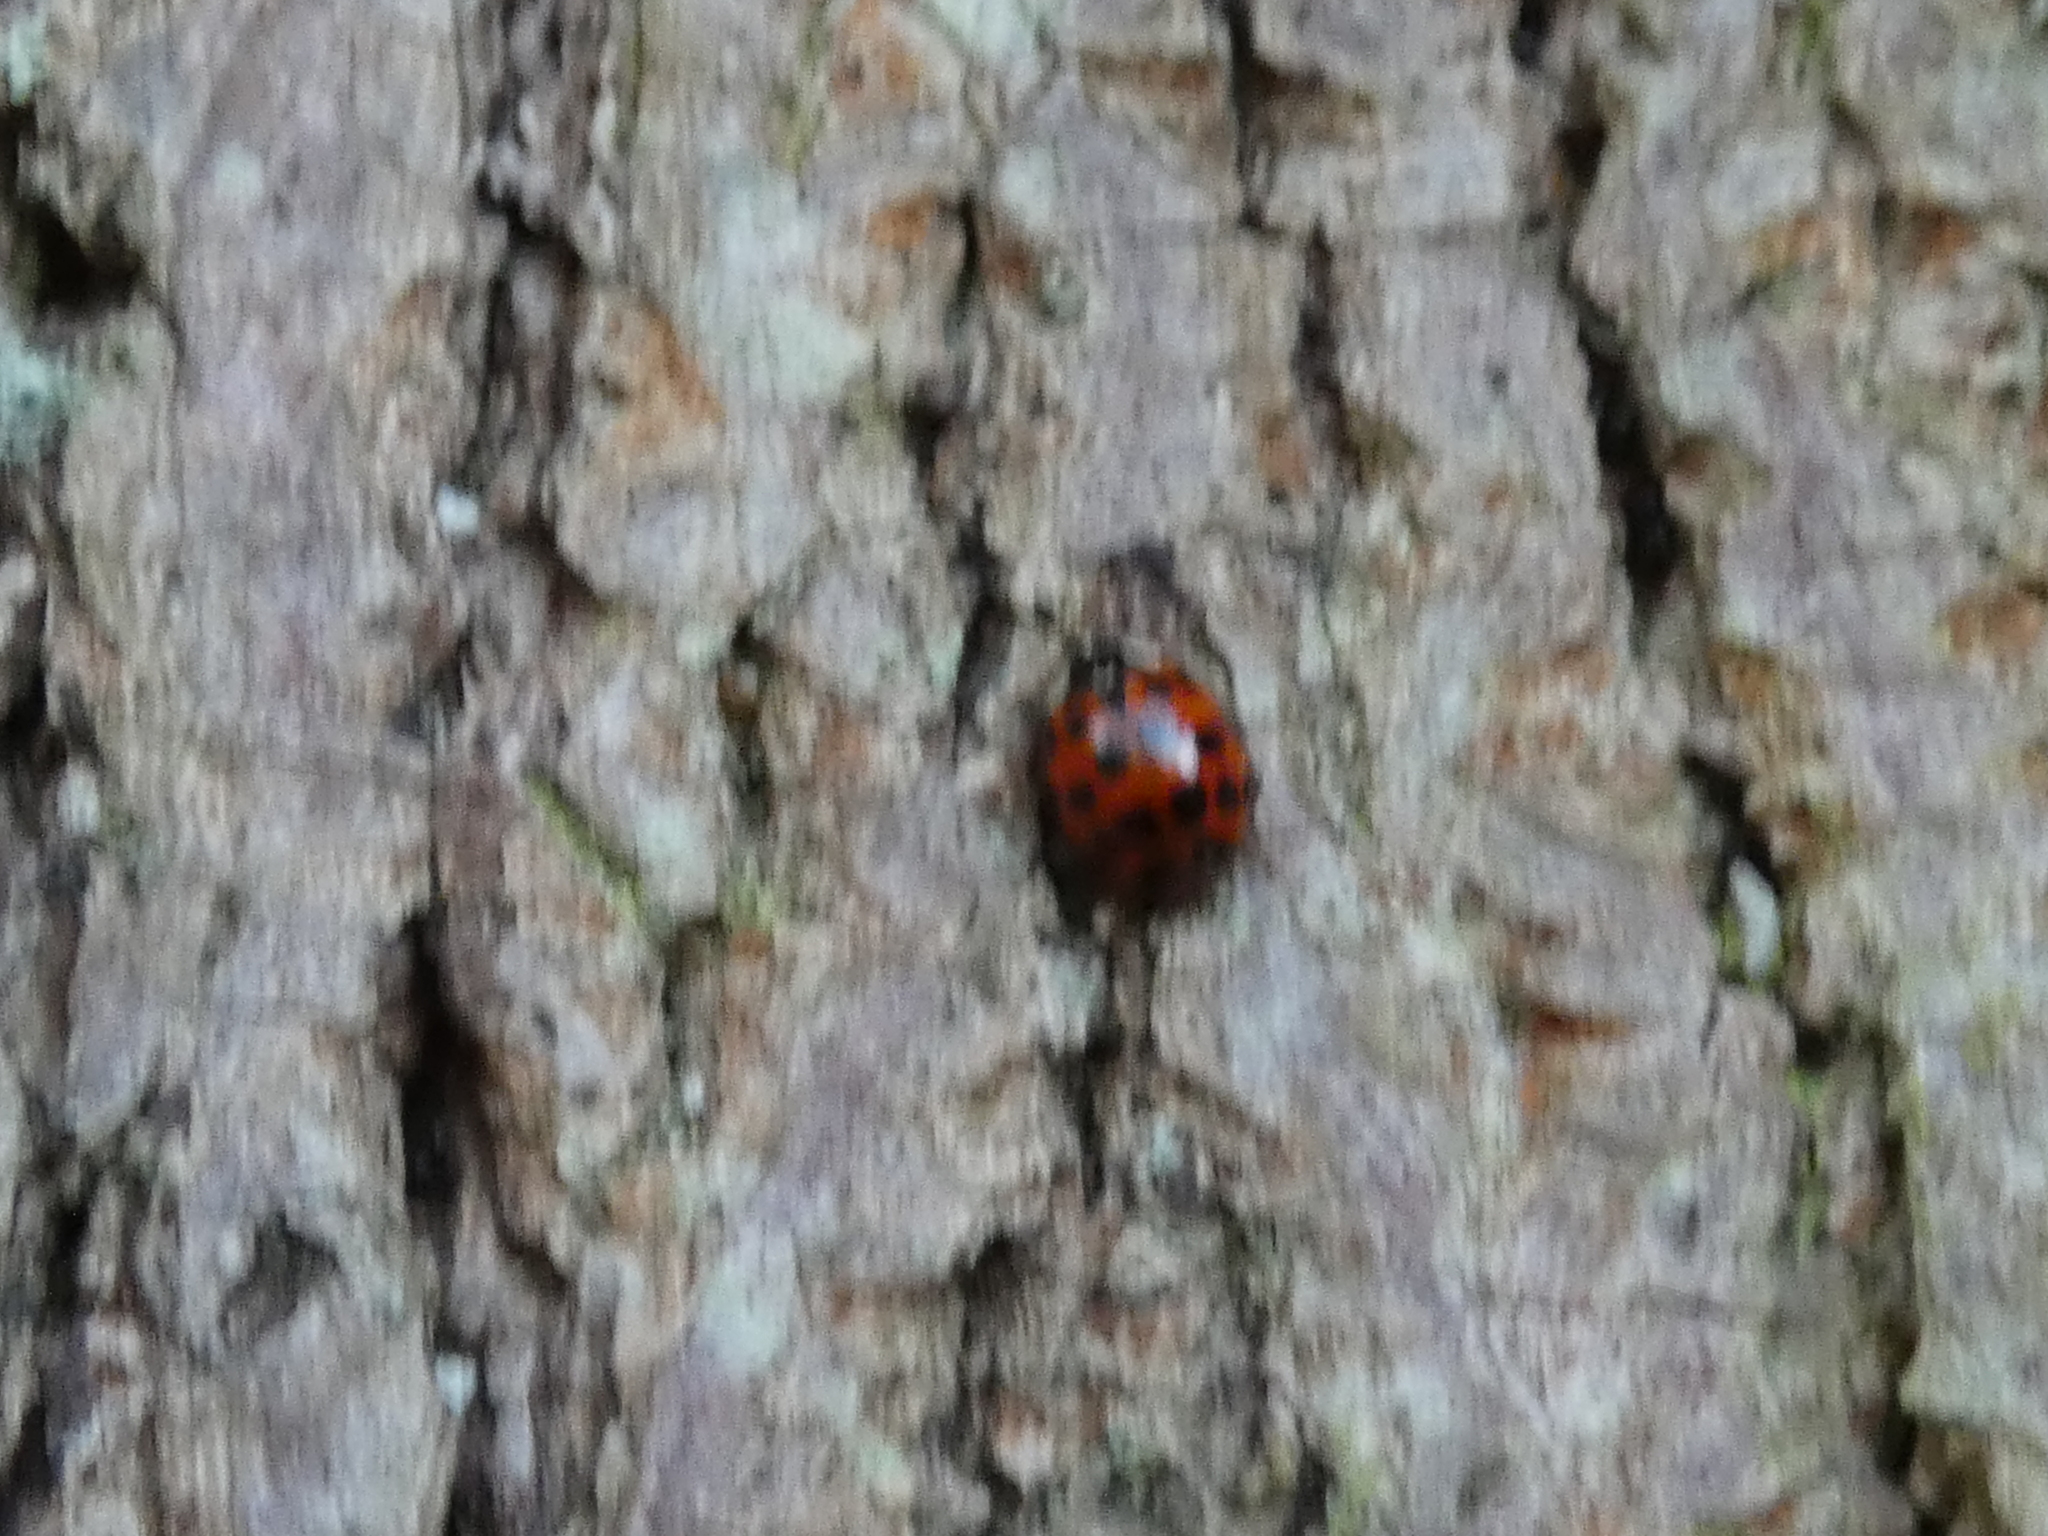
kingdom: Animalia
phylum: Arthropoda
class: Insecta
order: Coleoptera
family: Coccinellidae
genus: Harmonia
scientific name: Harmonia axyridis
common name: Harlequin ladybird
